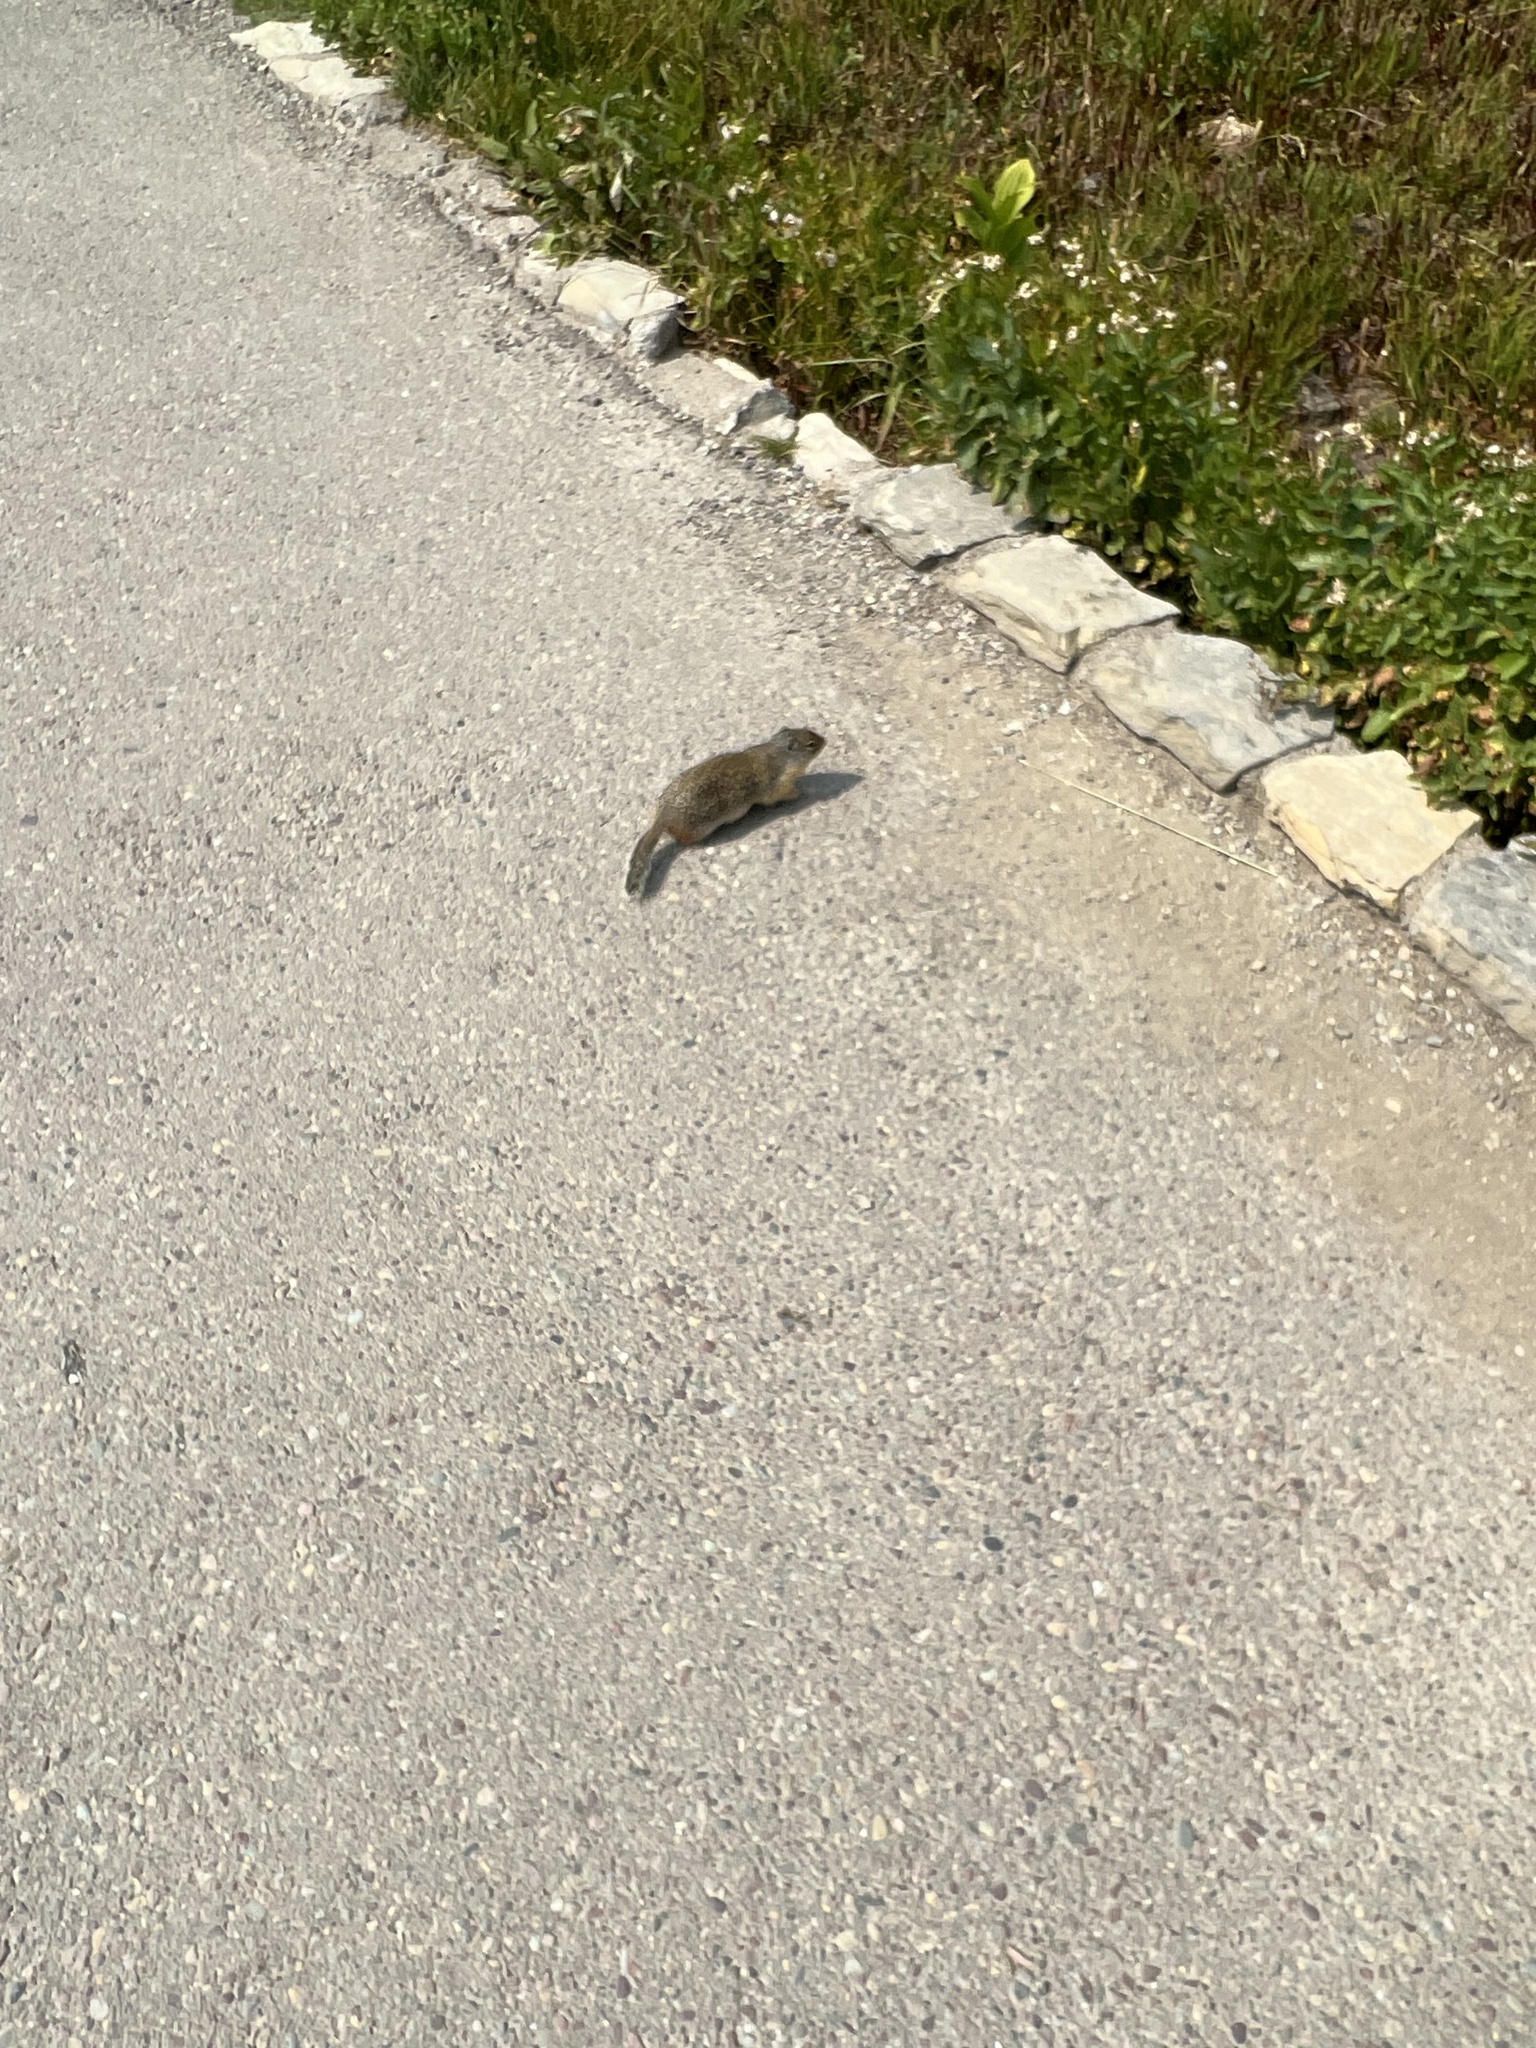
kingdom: Animalia
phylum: Chordata
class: Mammalia
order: Rodentia
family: Sciuridae
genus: Urocitellus
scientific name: Urocitellus columbianus
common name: Columbian ground squirrel
